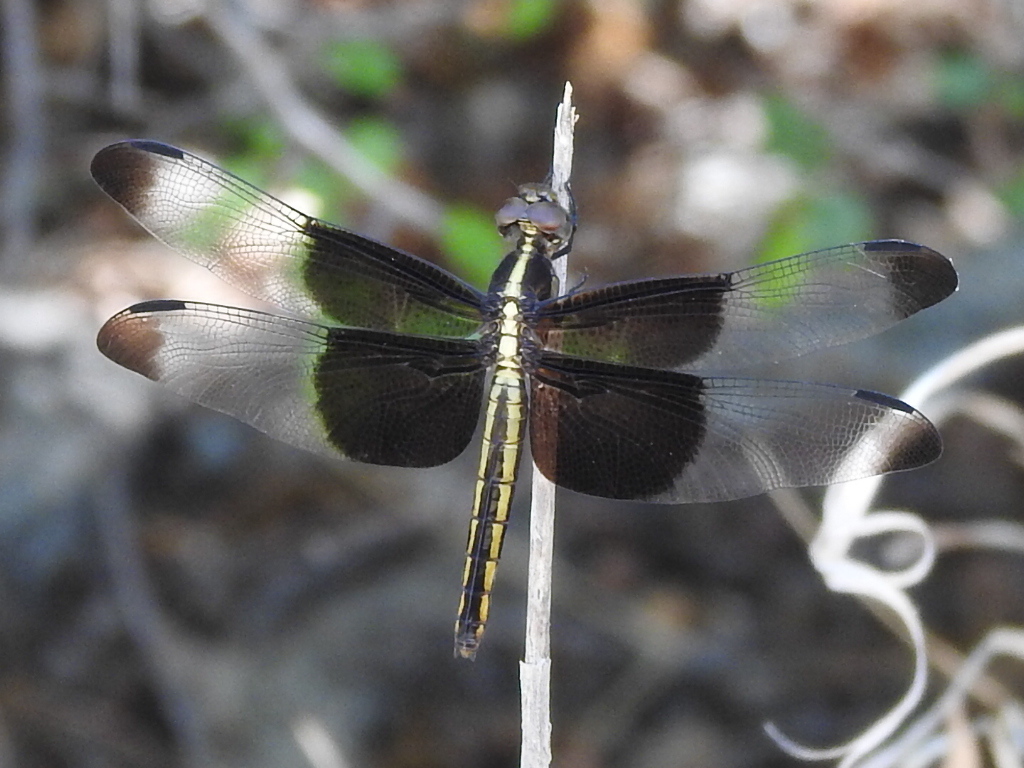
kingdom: Animalia
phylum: Arthropoda
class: Insecta
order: Odonata
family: Libellulidae
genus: Libellula
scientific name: Libellula luctuosa
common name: Widow skimmer
